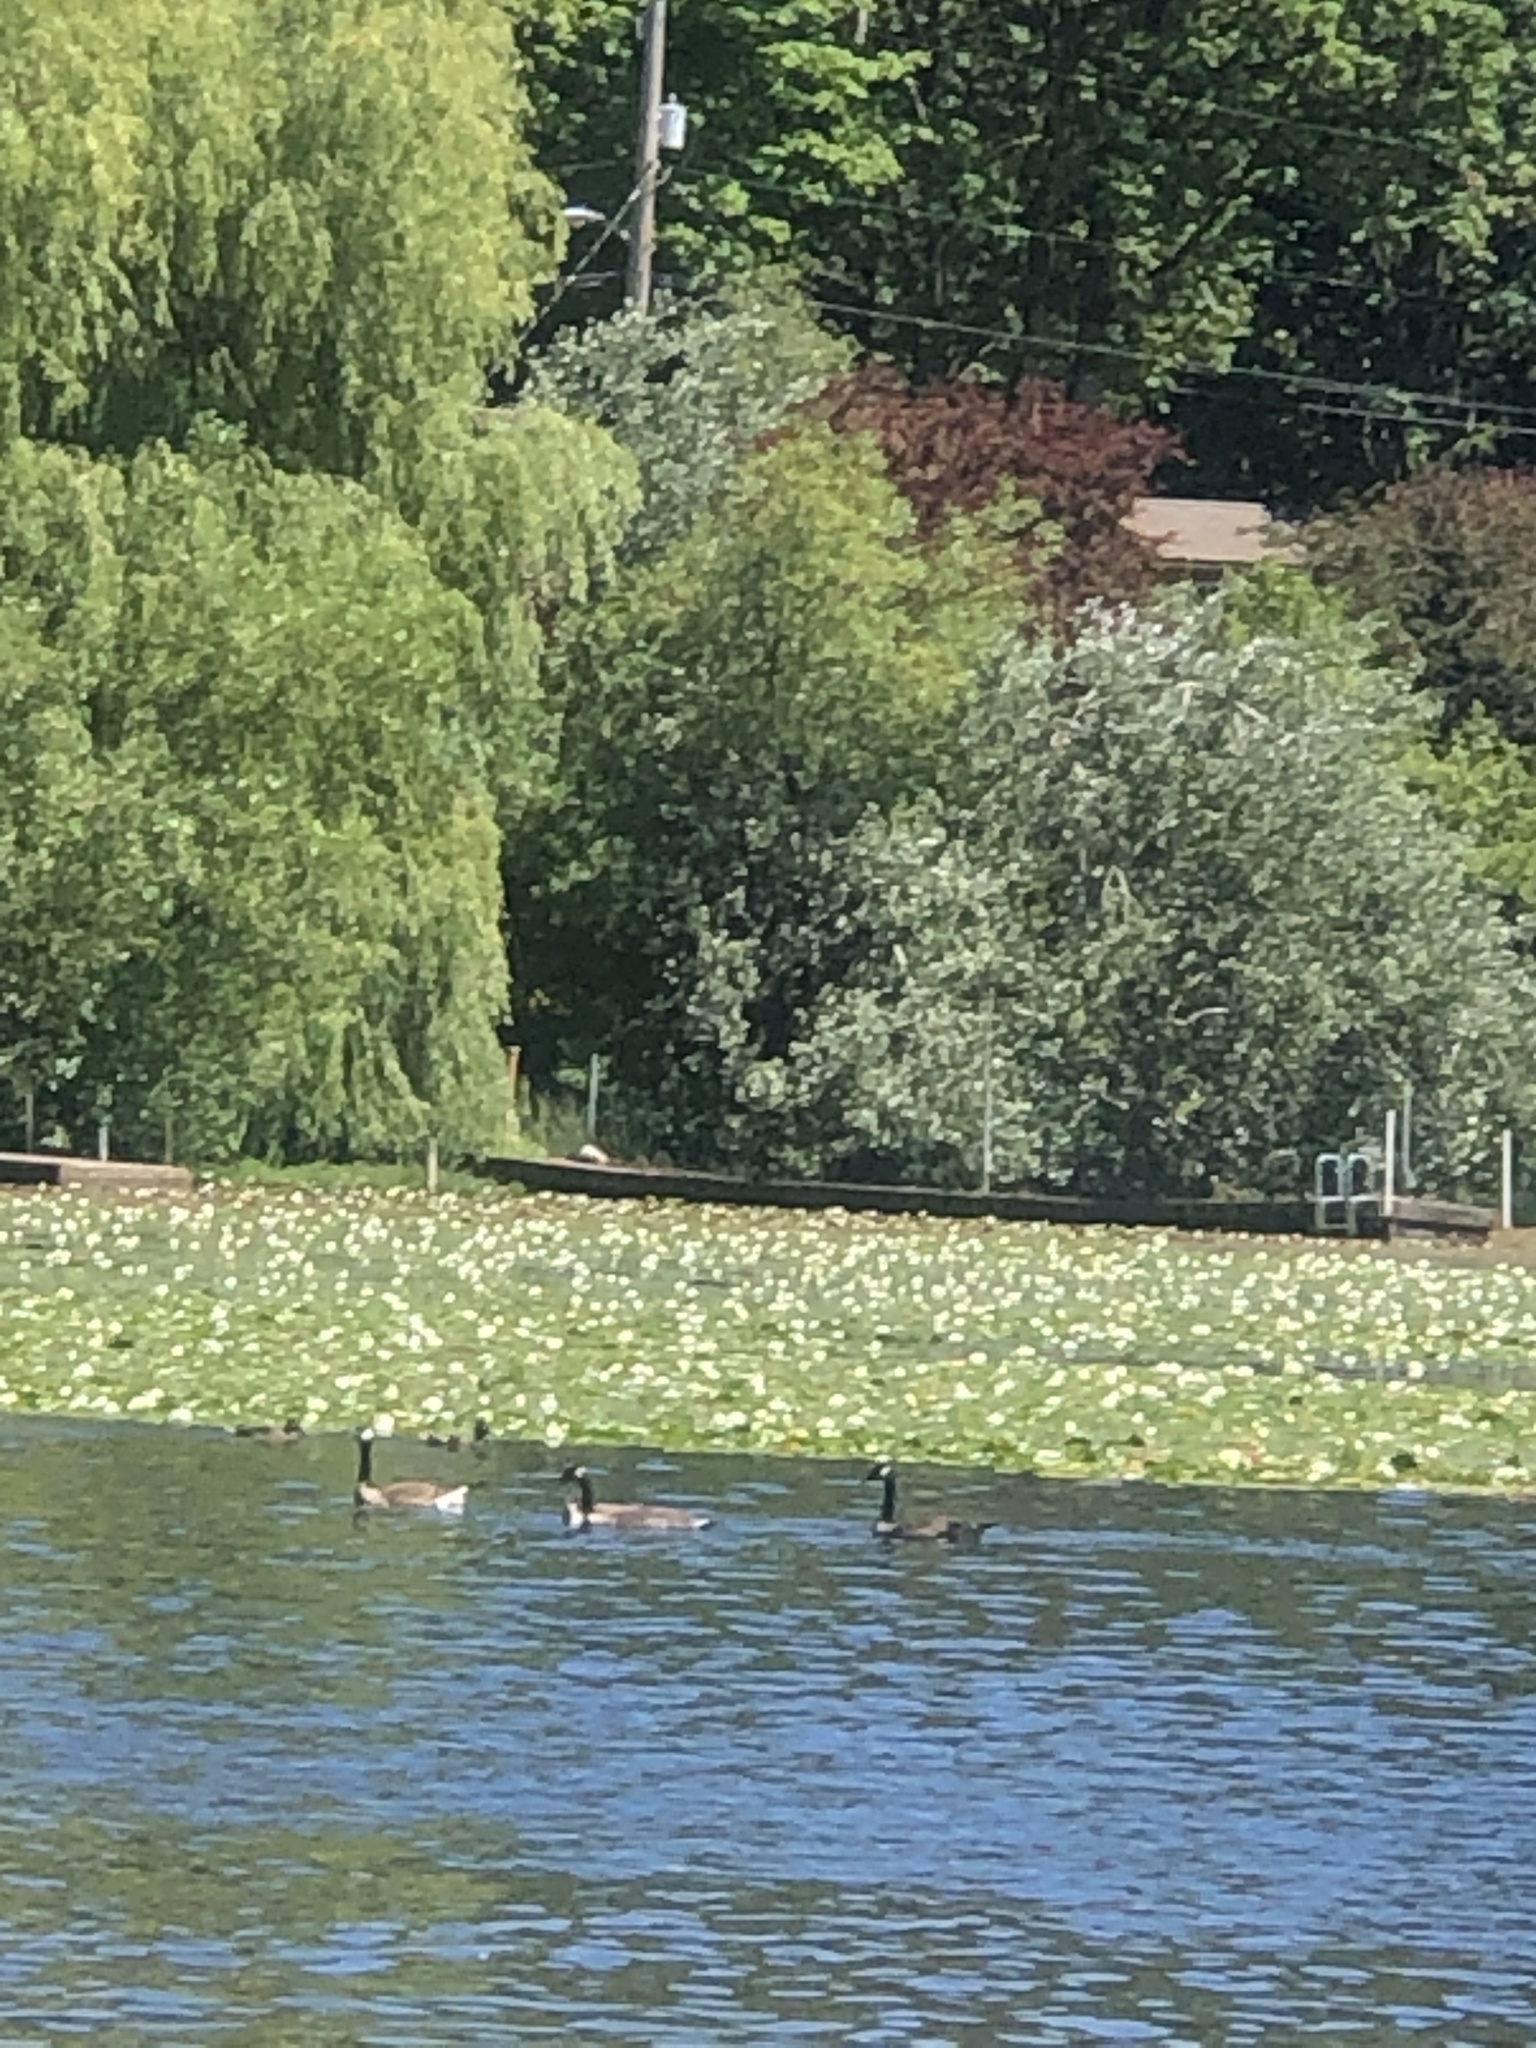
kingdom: Animalia
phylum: Chordata
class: Aves
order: Anseriformes
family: Anatidae
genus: Branta
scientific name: Branta canadensis
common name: Canada goose
